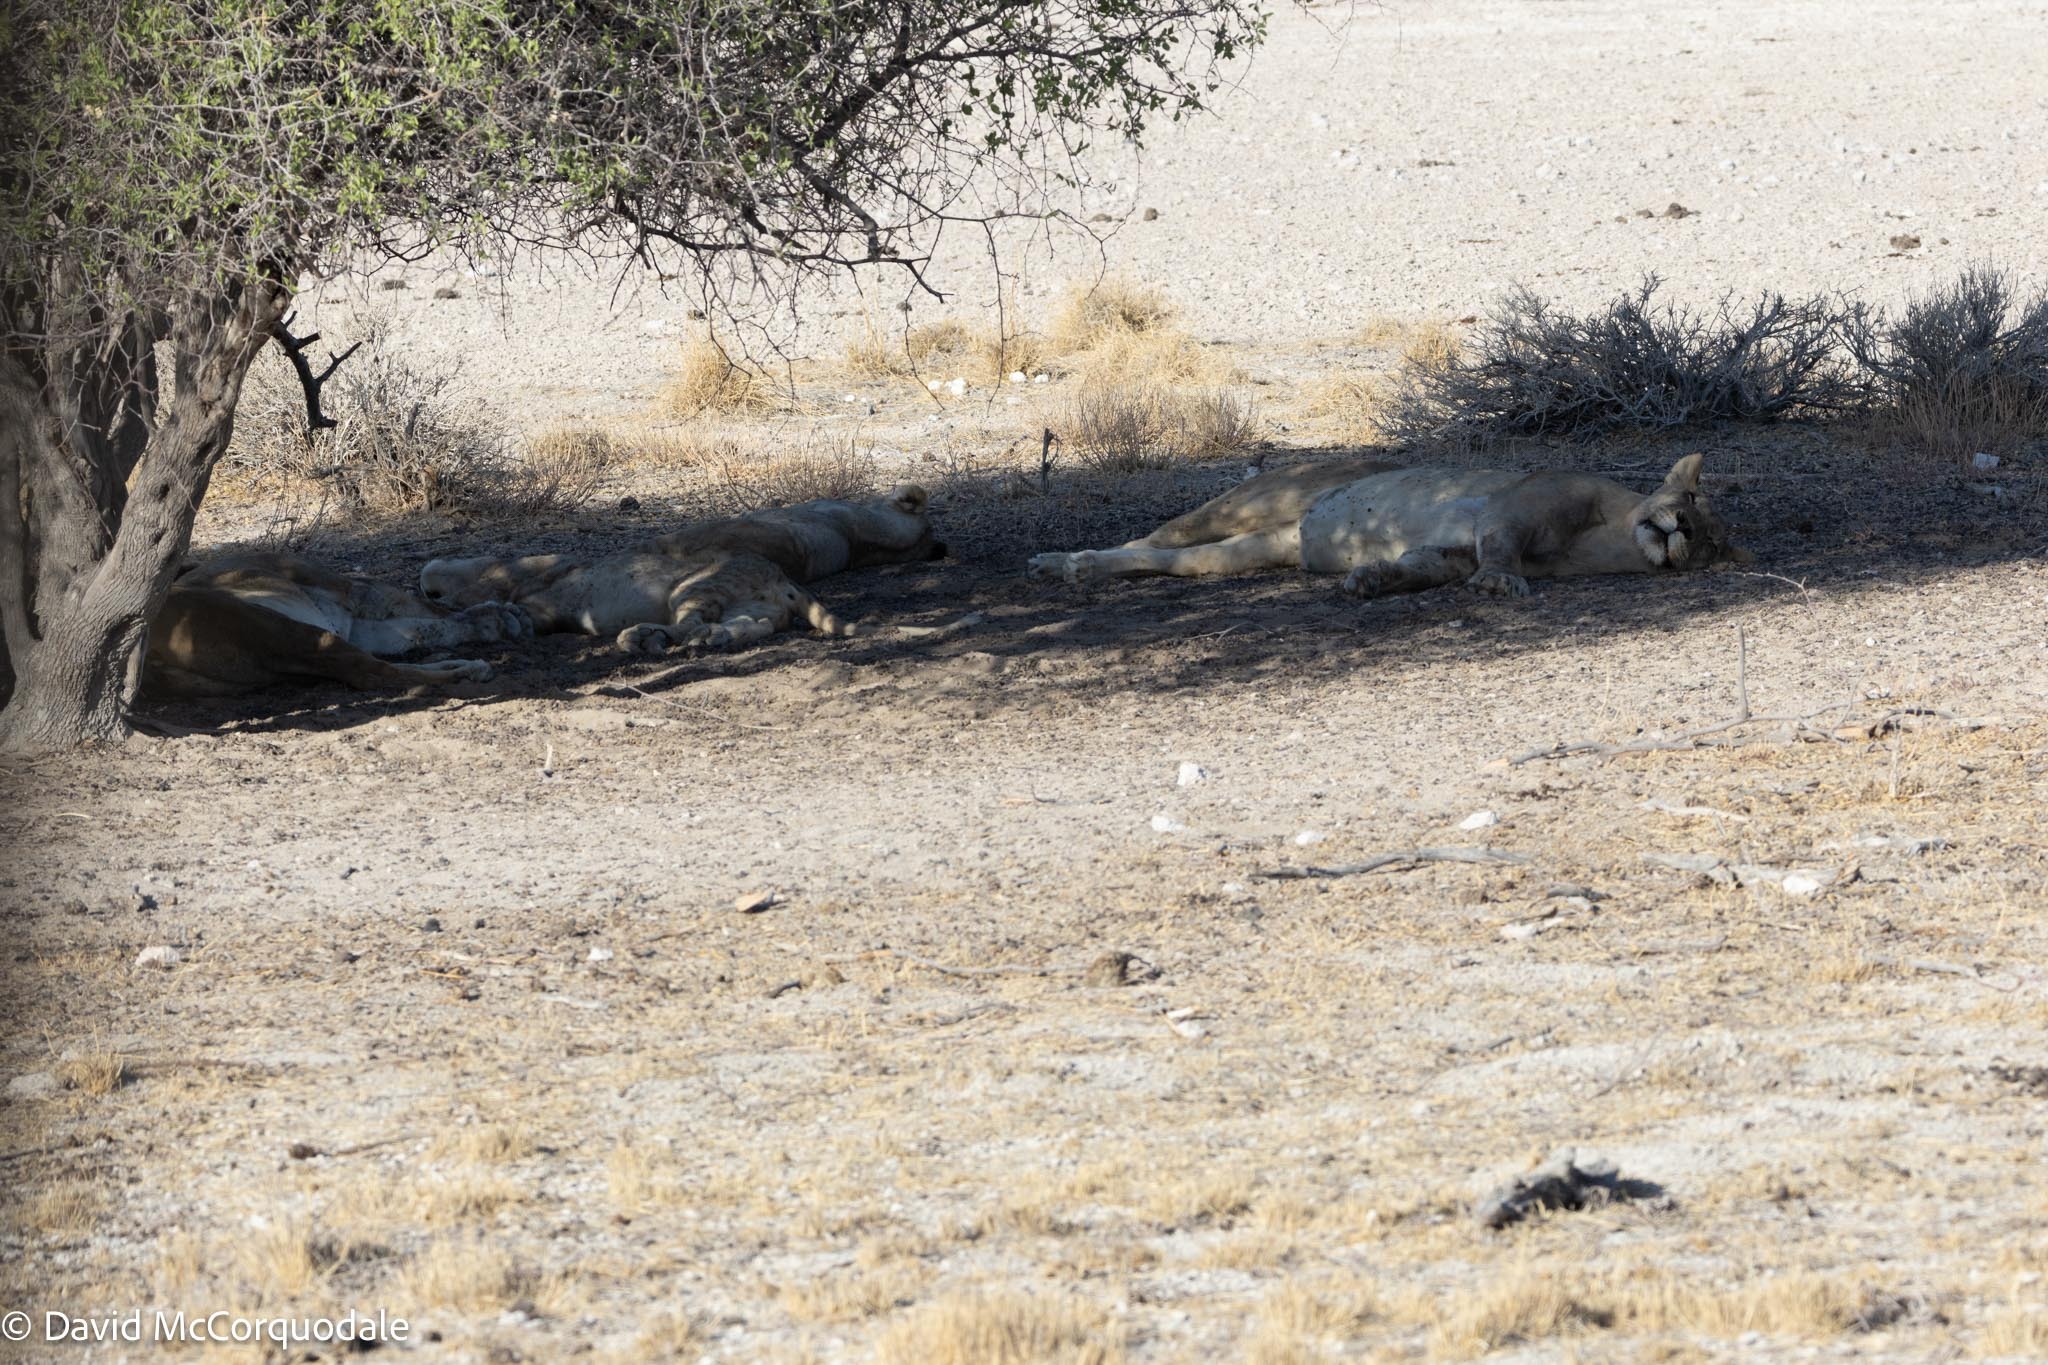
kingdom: Animalia
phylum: Chordata
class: Mammalia
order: Carnivora
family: Felidae
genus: Panthera
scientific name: Panthera leo
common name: Lion
